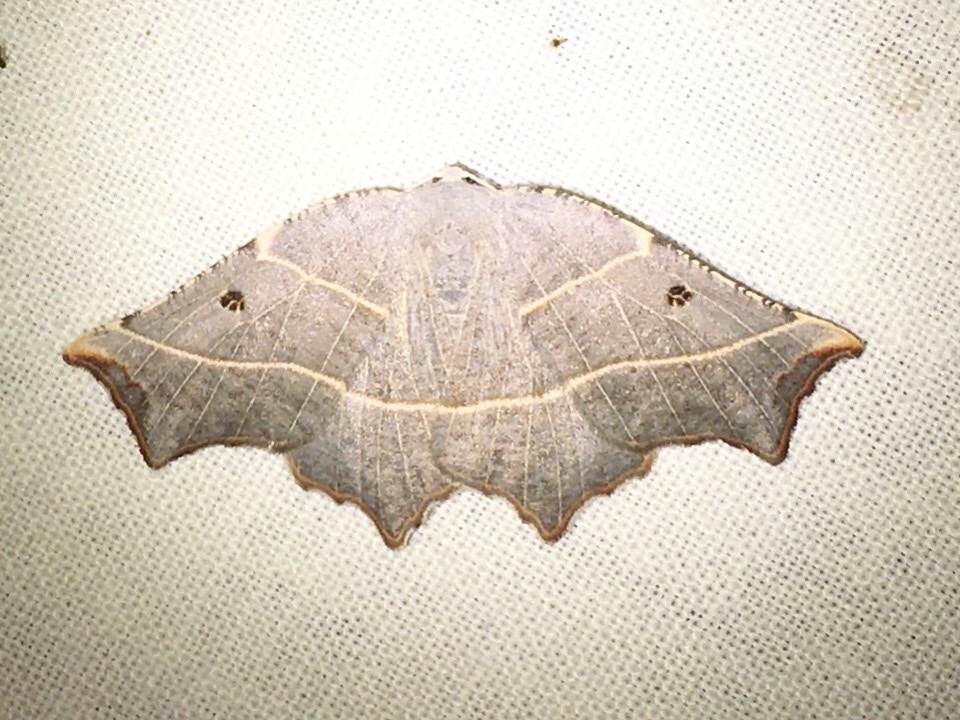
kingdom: Animalia
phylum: Arthropoda
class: Insecta
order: Lepidoptera
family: Geometridae
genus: Metanema
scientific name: Metanema inatomaria
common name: Pale metanema
